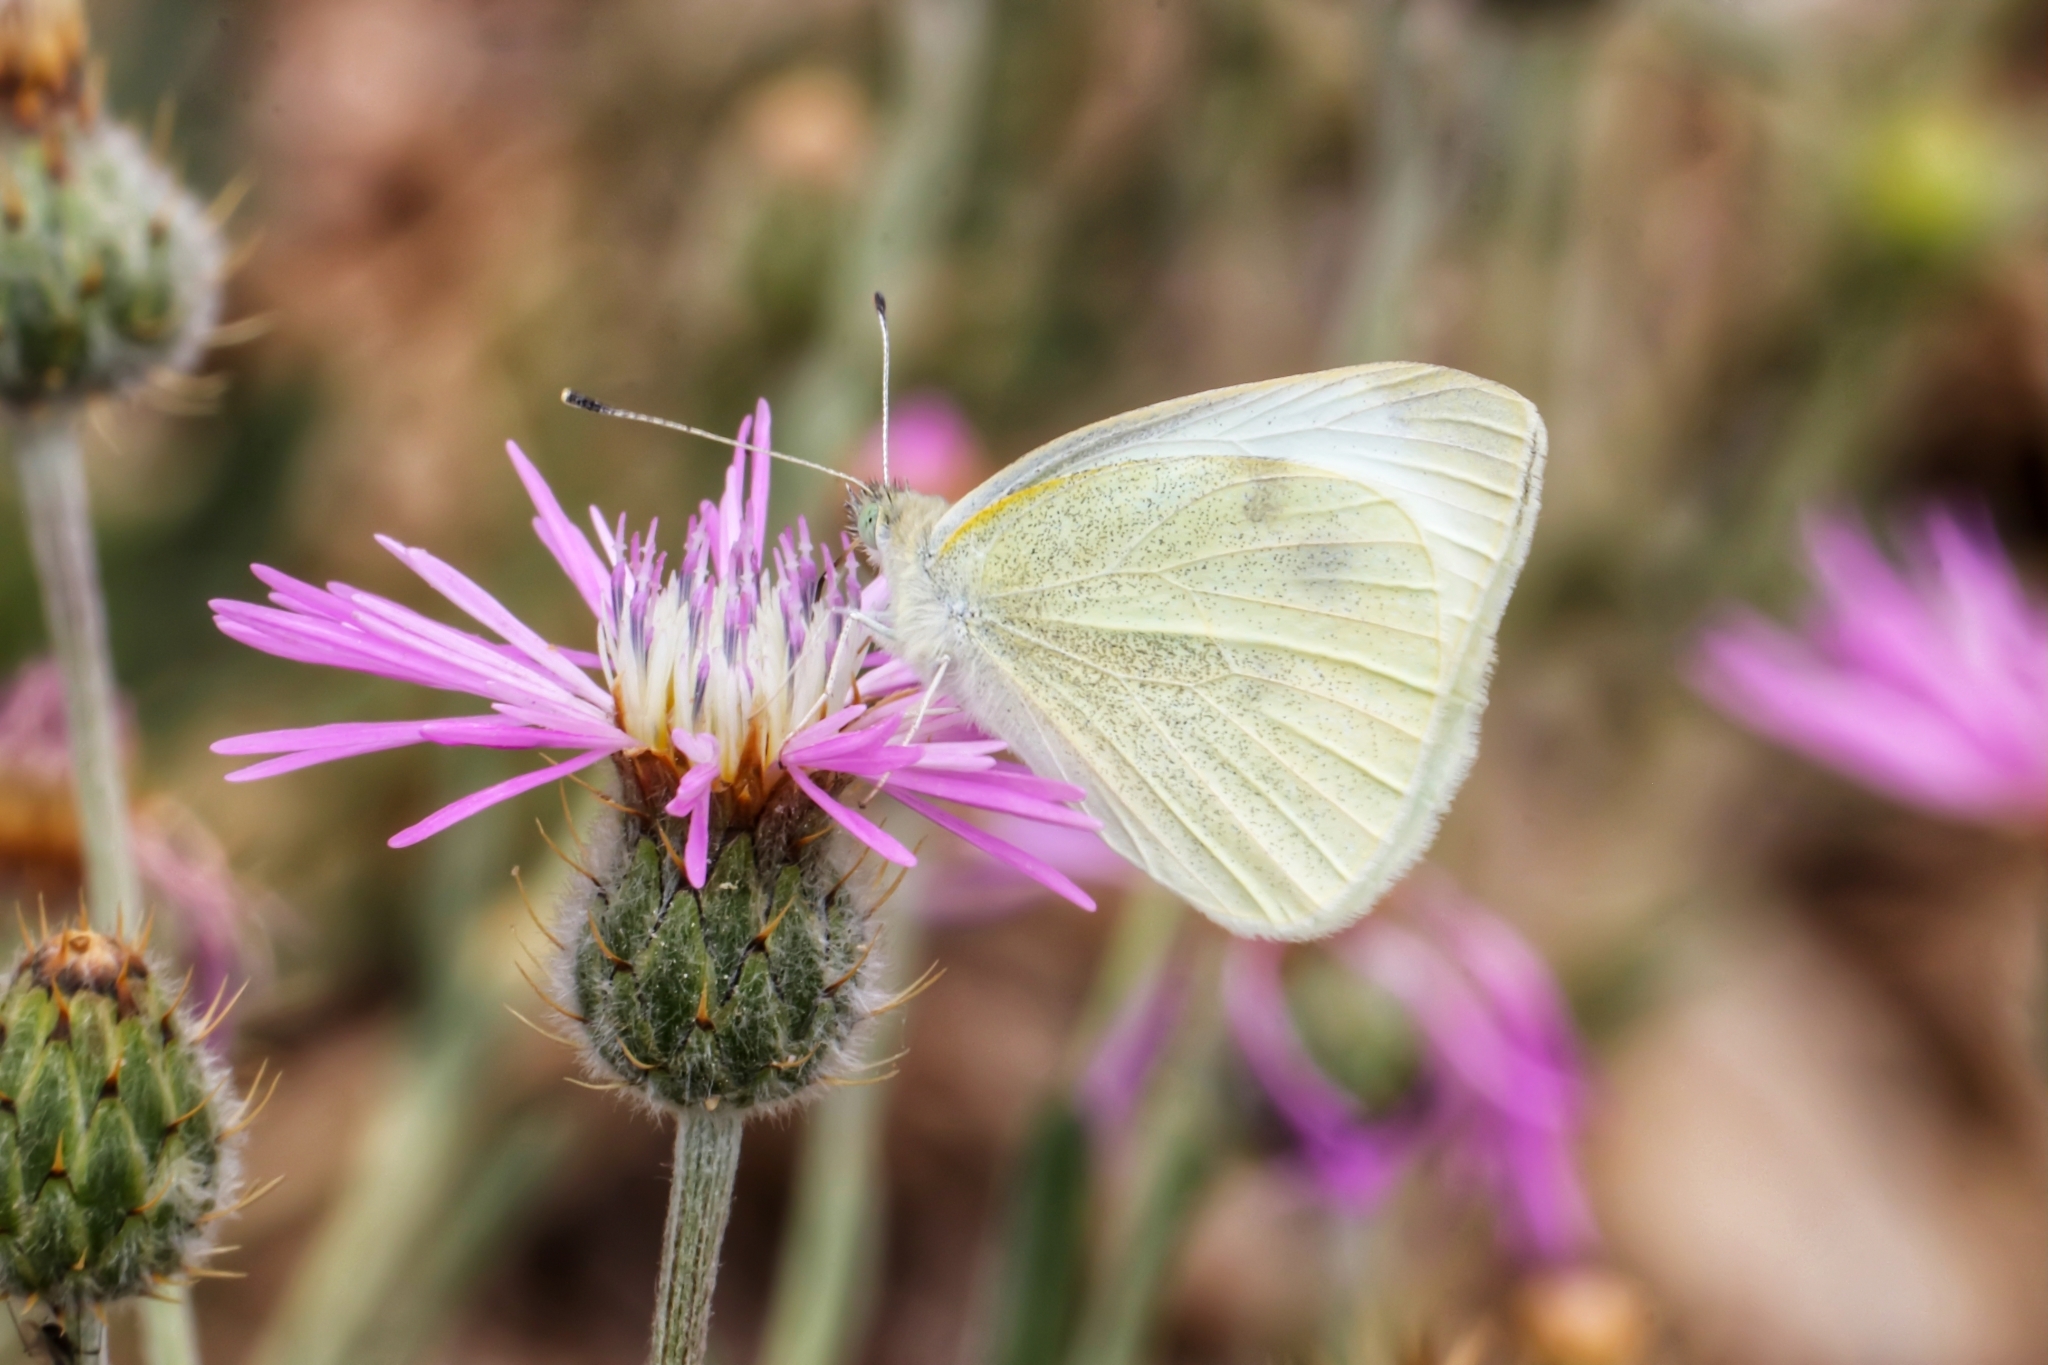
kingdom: Animalia
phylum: Arthropoda
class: Insecta
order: Lepidoptera
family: Pieridae
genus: Pieris
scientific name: Pieris rapae
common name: Small white
